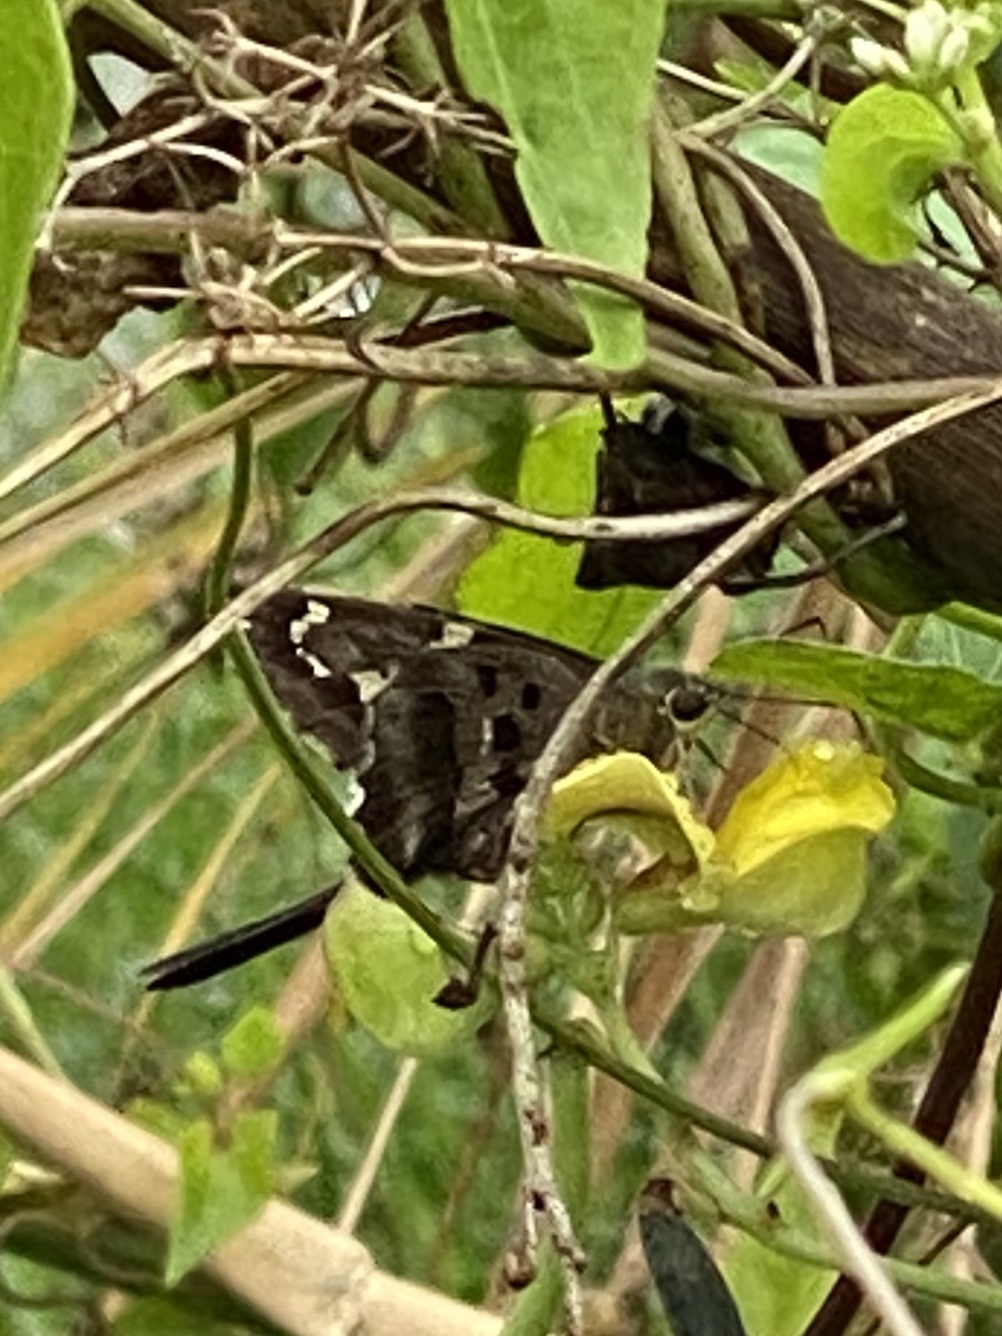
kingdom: Animalia
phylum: Arthropoda
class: Insecta
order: Lepidoptera
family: Hesperiidae
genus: Urbanus
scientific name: Urbanus proteus
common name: Long-tailed skipper
